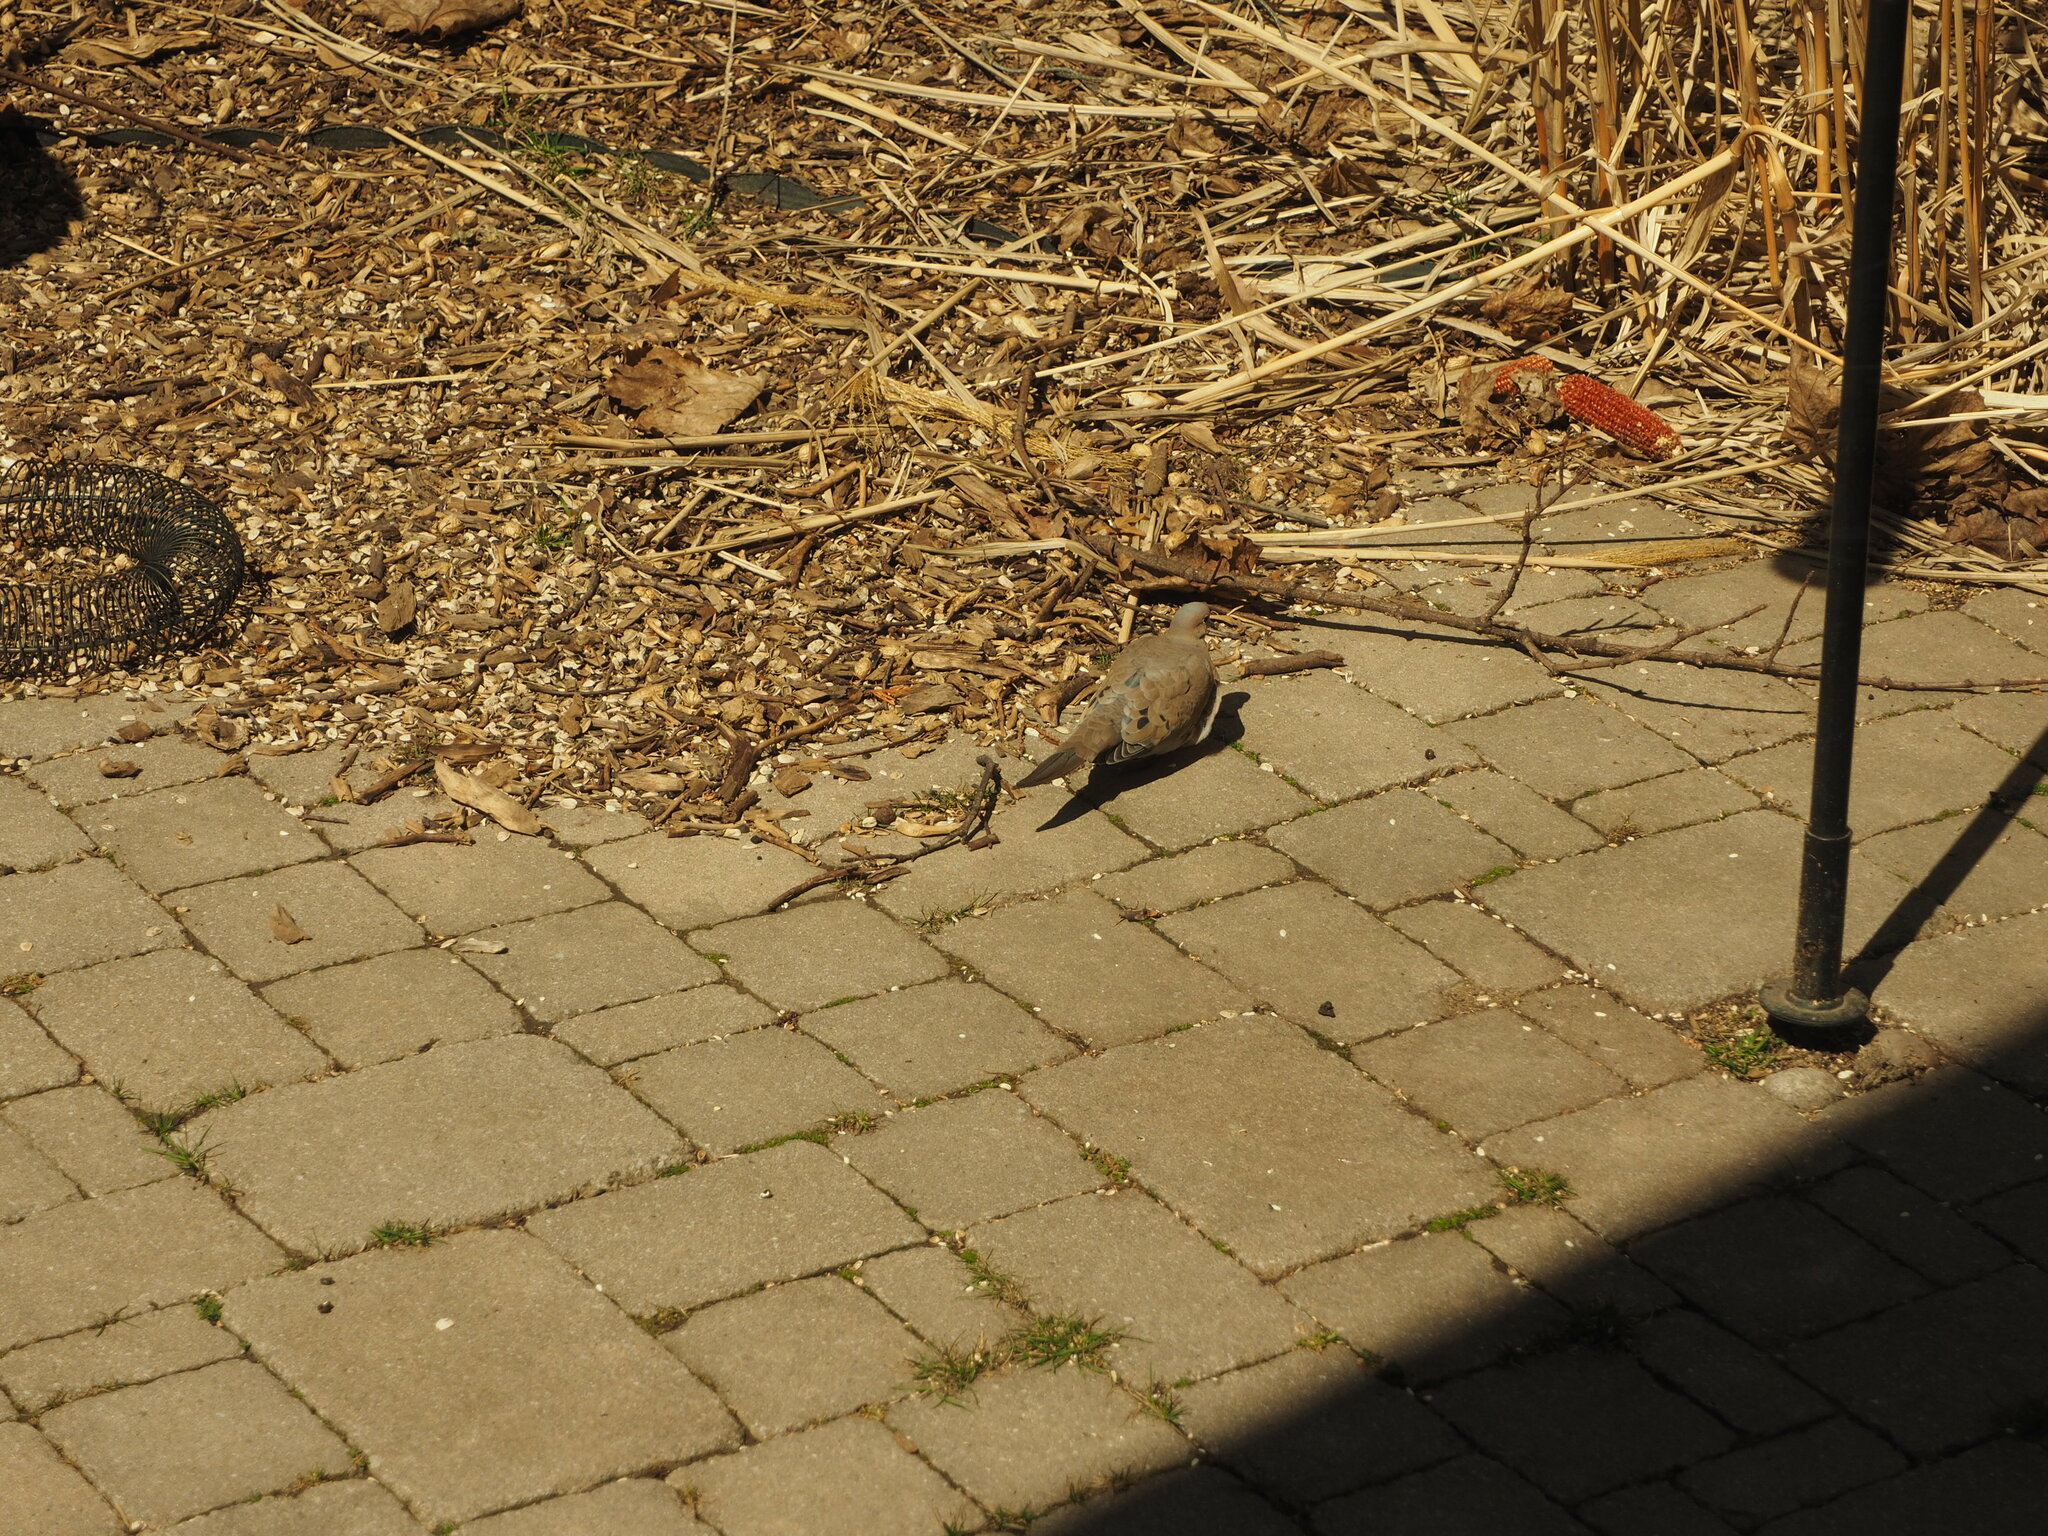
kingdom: Animalia
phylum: Chordata
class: Aves
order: Columbiformes
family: Columbidae
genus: Zenaida
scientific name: Zenaida macroura
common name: Mourning dove
